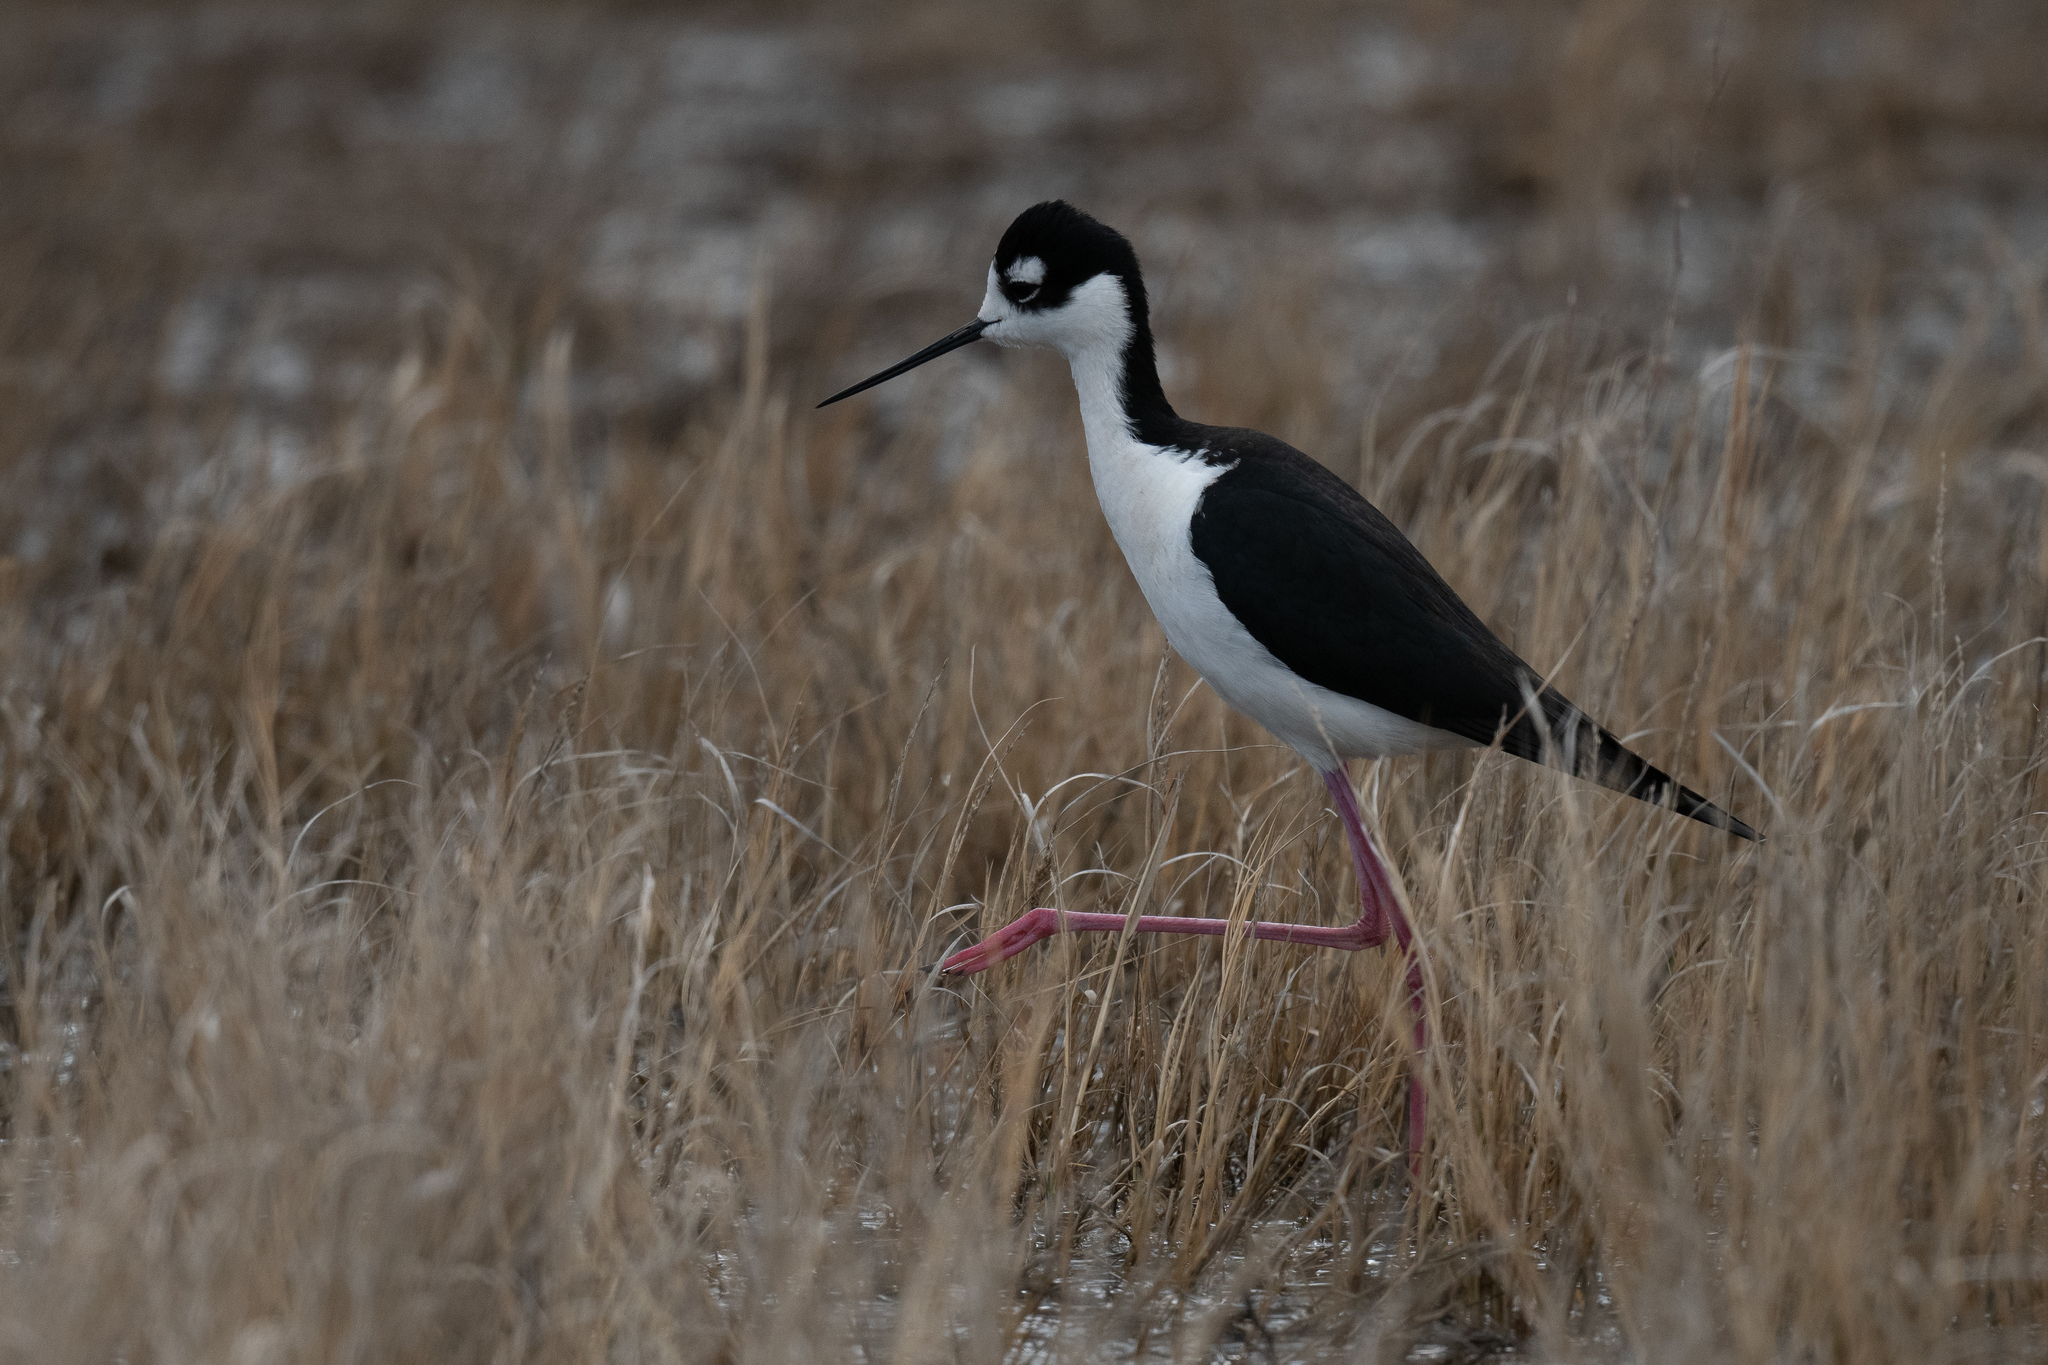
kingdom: Animalia
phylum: Chordata
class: Aves
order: Charadriiformes
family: Recurvirostridae
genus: Himantopus
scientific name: Himantopus mexicanus
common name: Black-necked stilt
